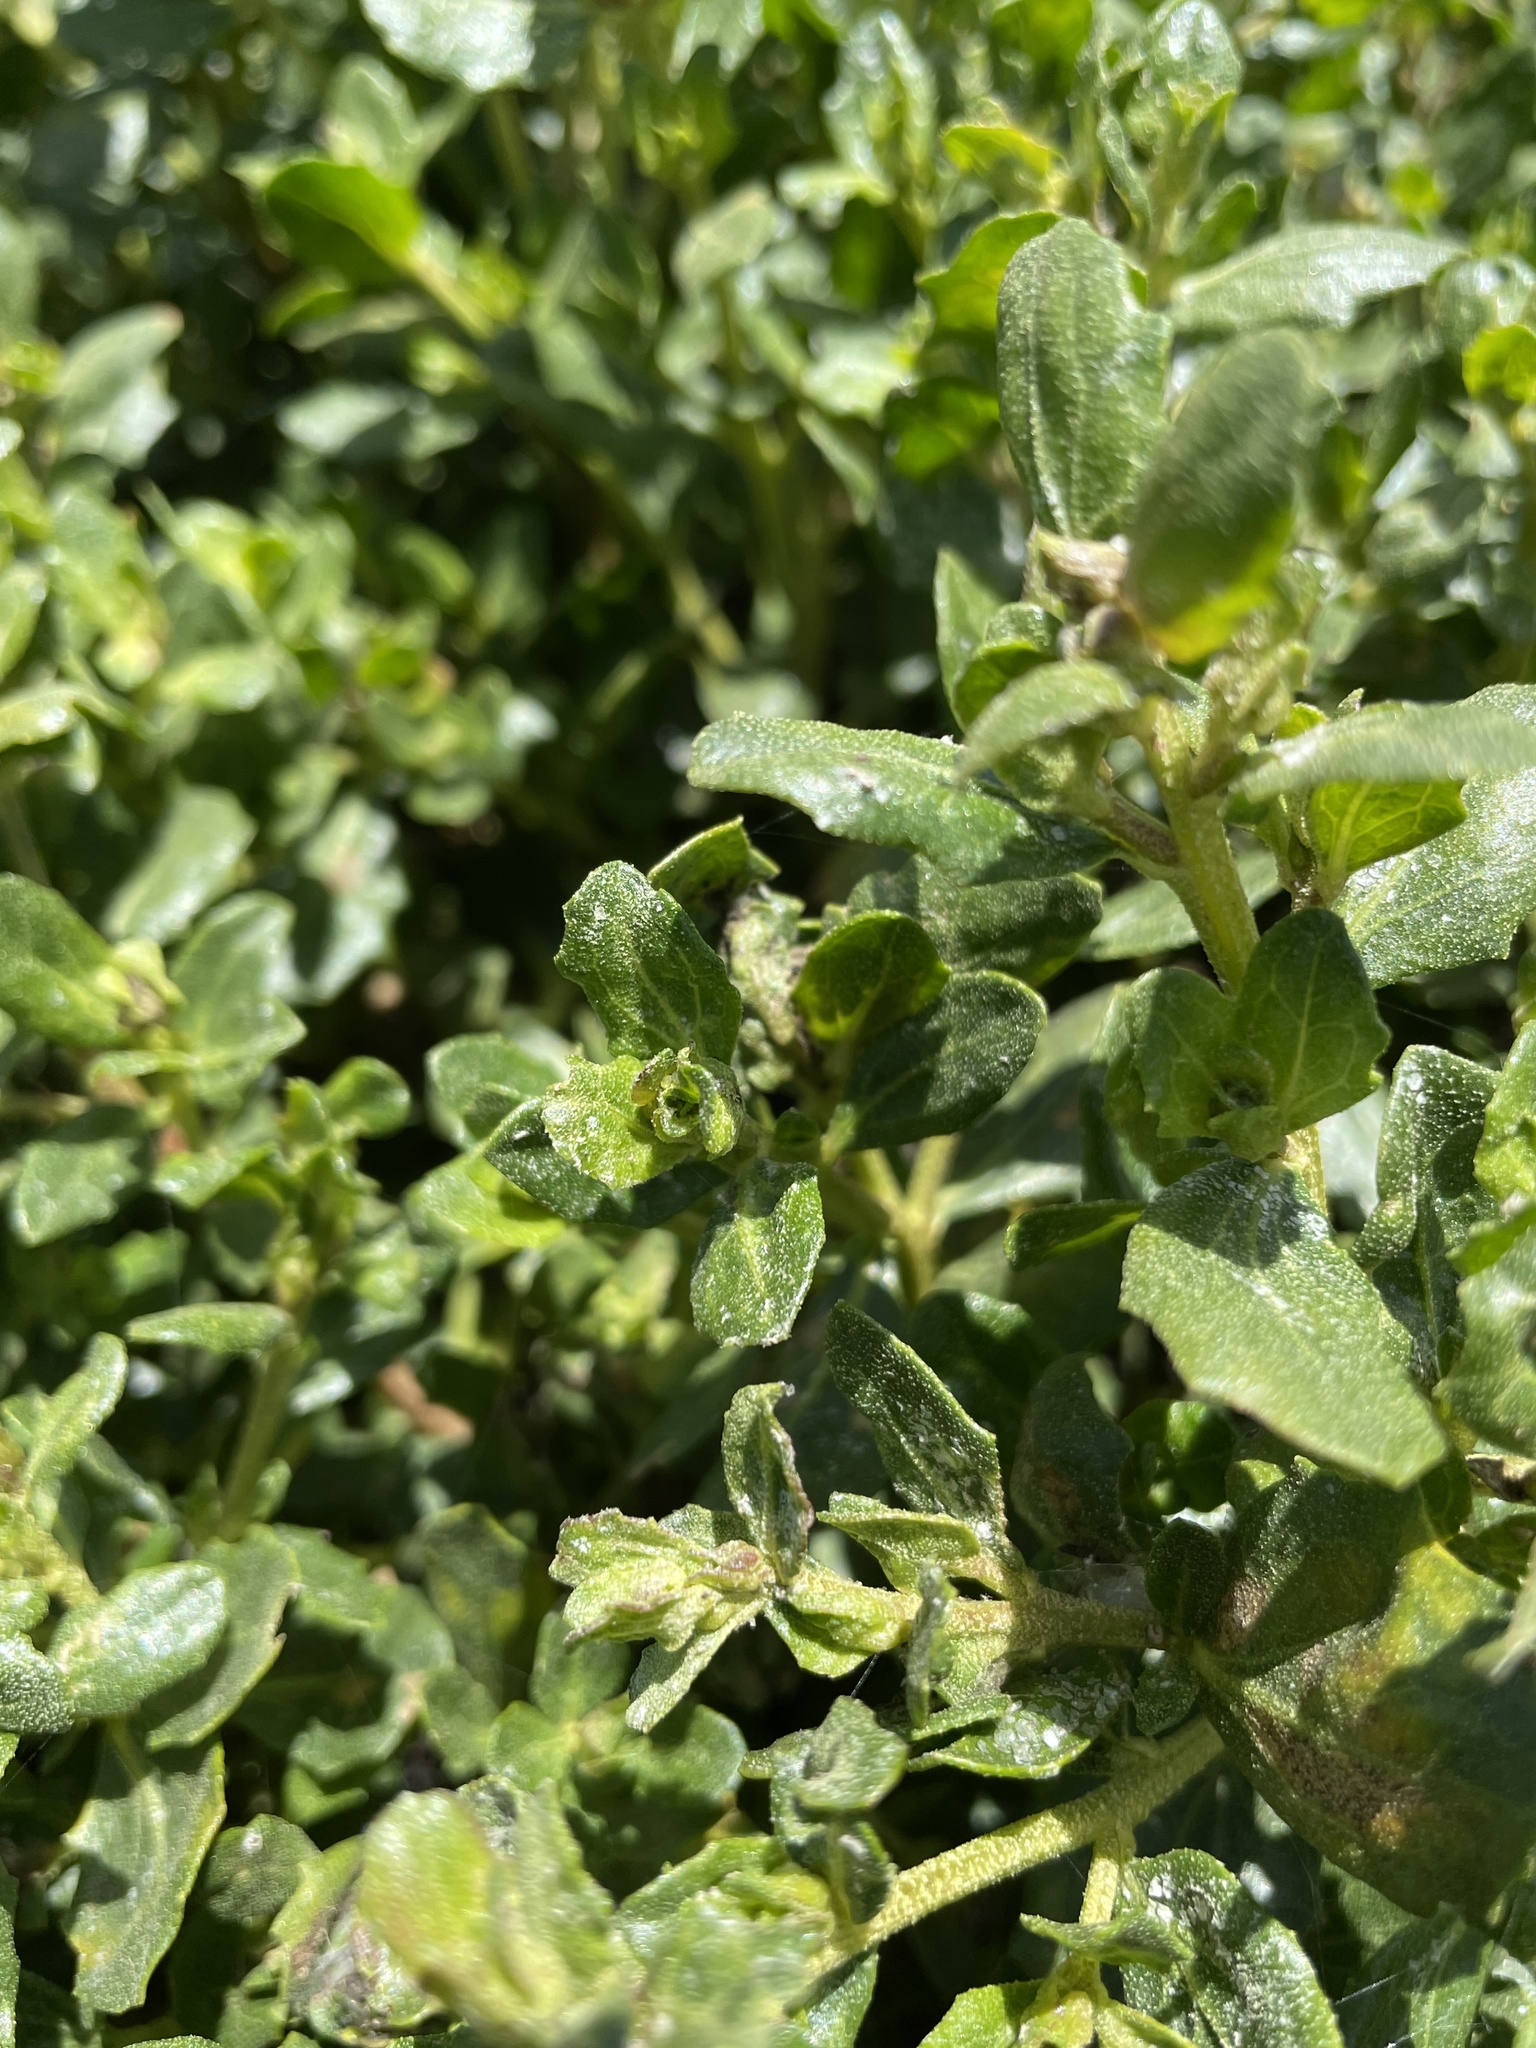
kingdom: Plantae
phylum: Tracheophyta
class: Magnoliopsida
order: Asterales
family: Asteraceae
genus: Baccharis
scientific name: Baccharis pilularis
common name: Coyotebrush
